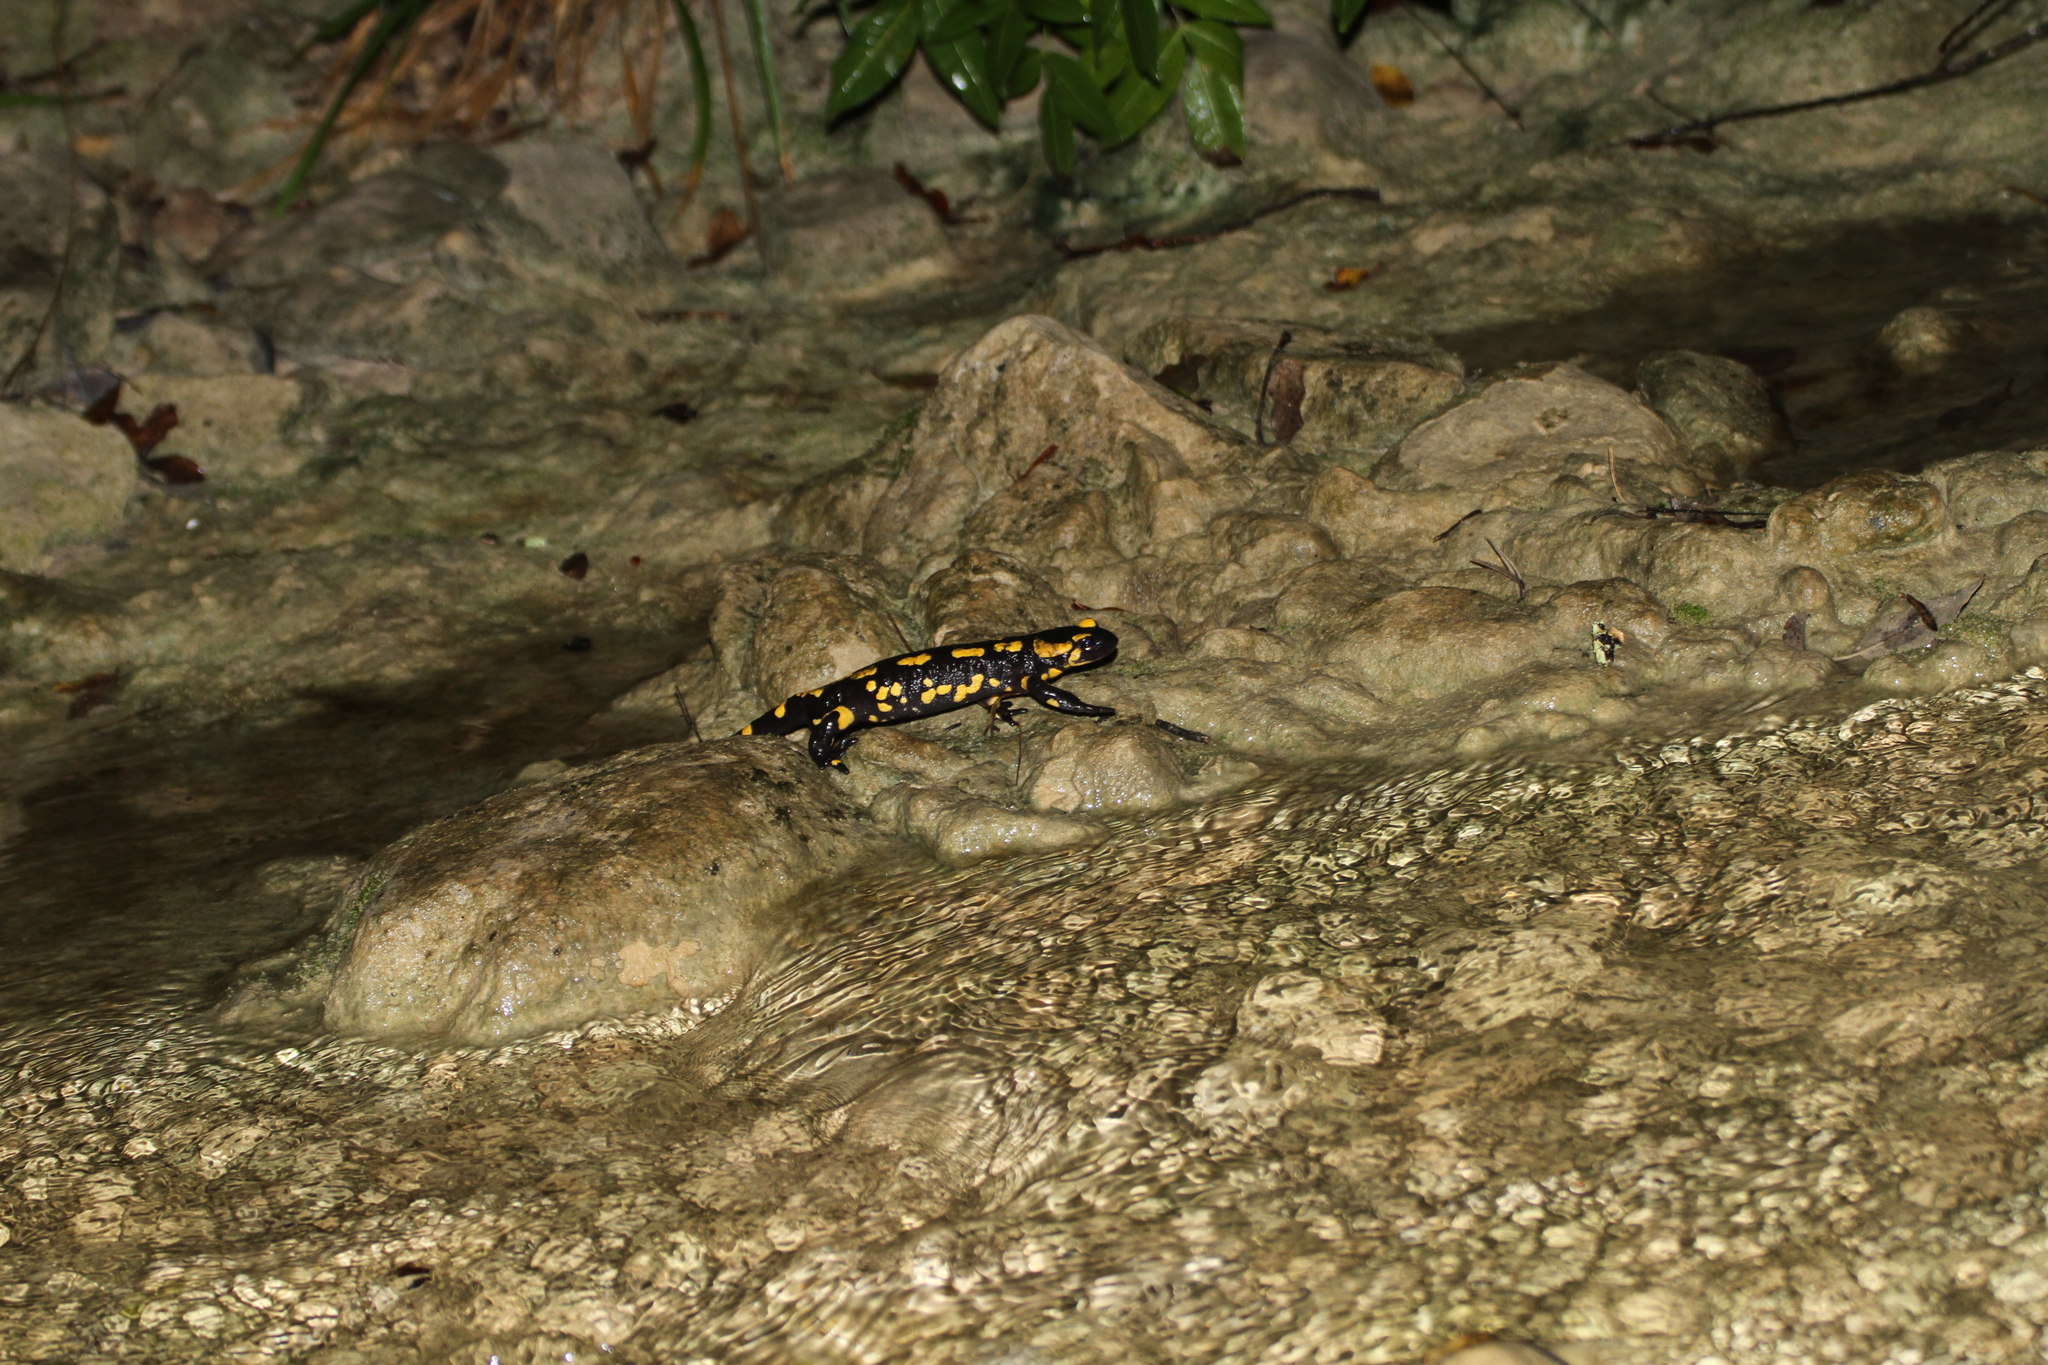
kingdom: Animalia
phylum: Chordata
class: Amphibia
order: Caudata
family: Salamandridae
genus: Salamandra
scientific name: Salamandra salamandra
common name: Fire salamander
